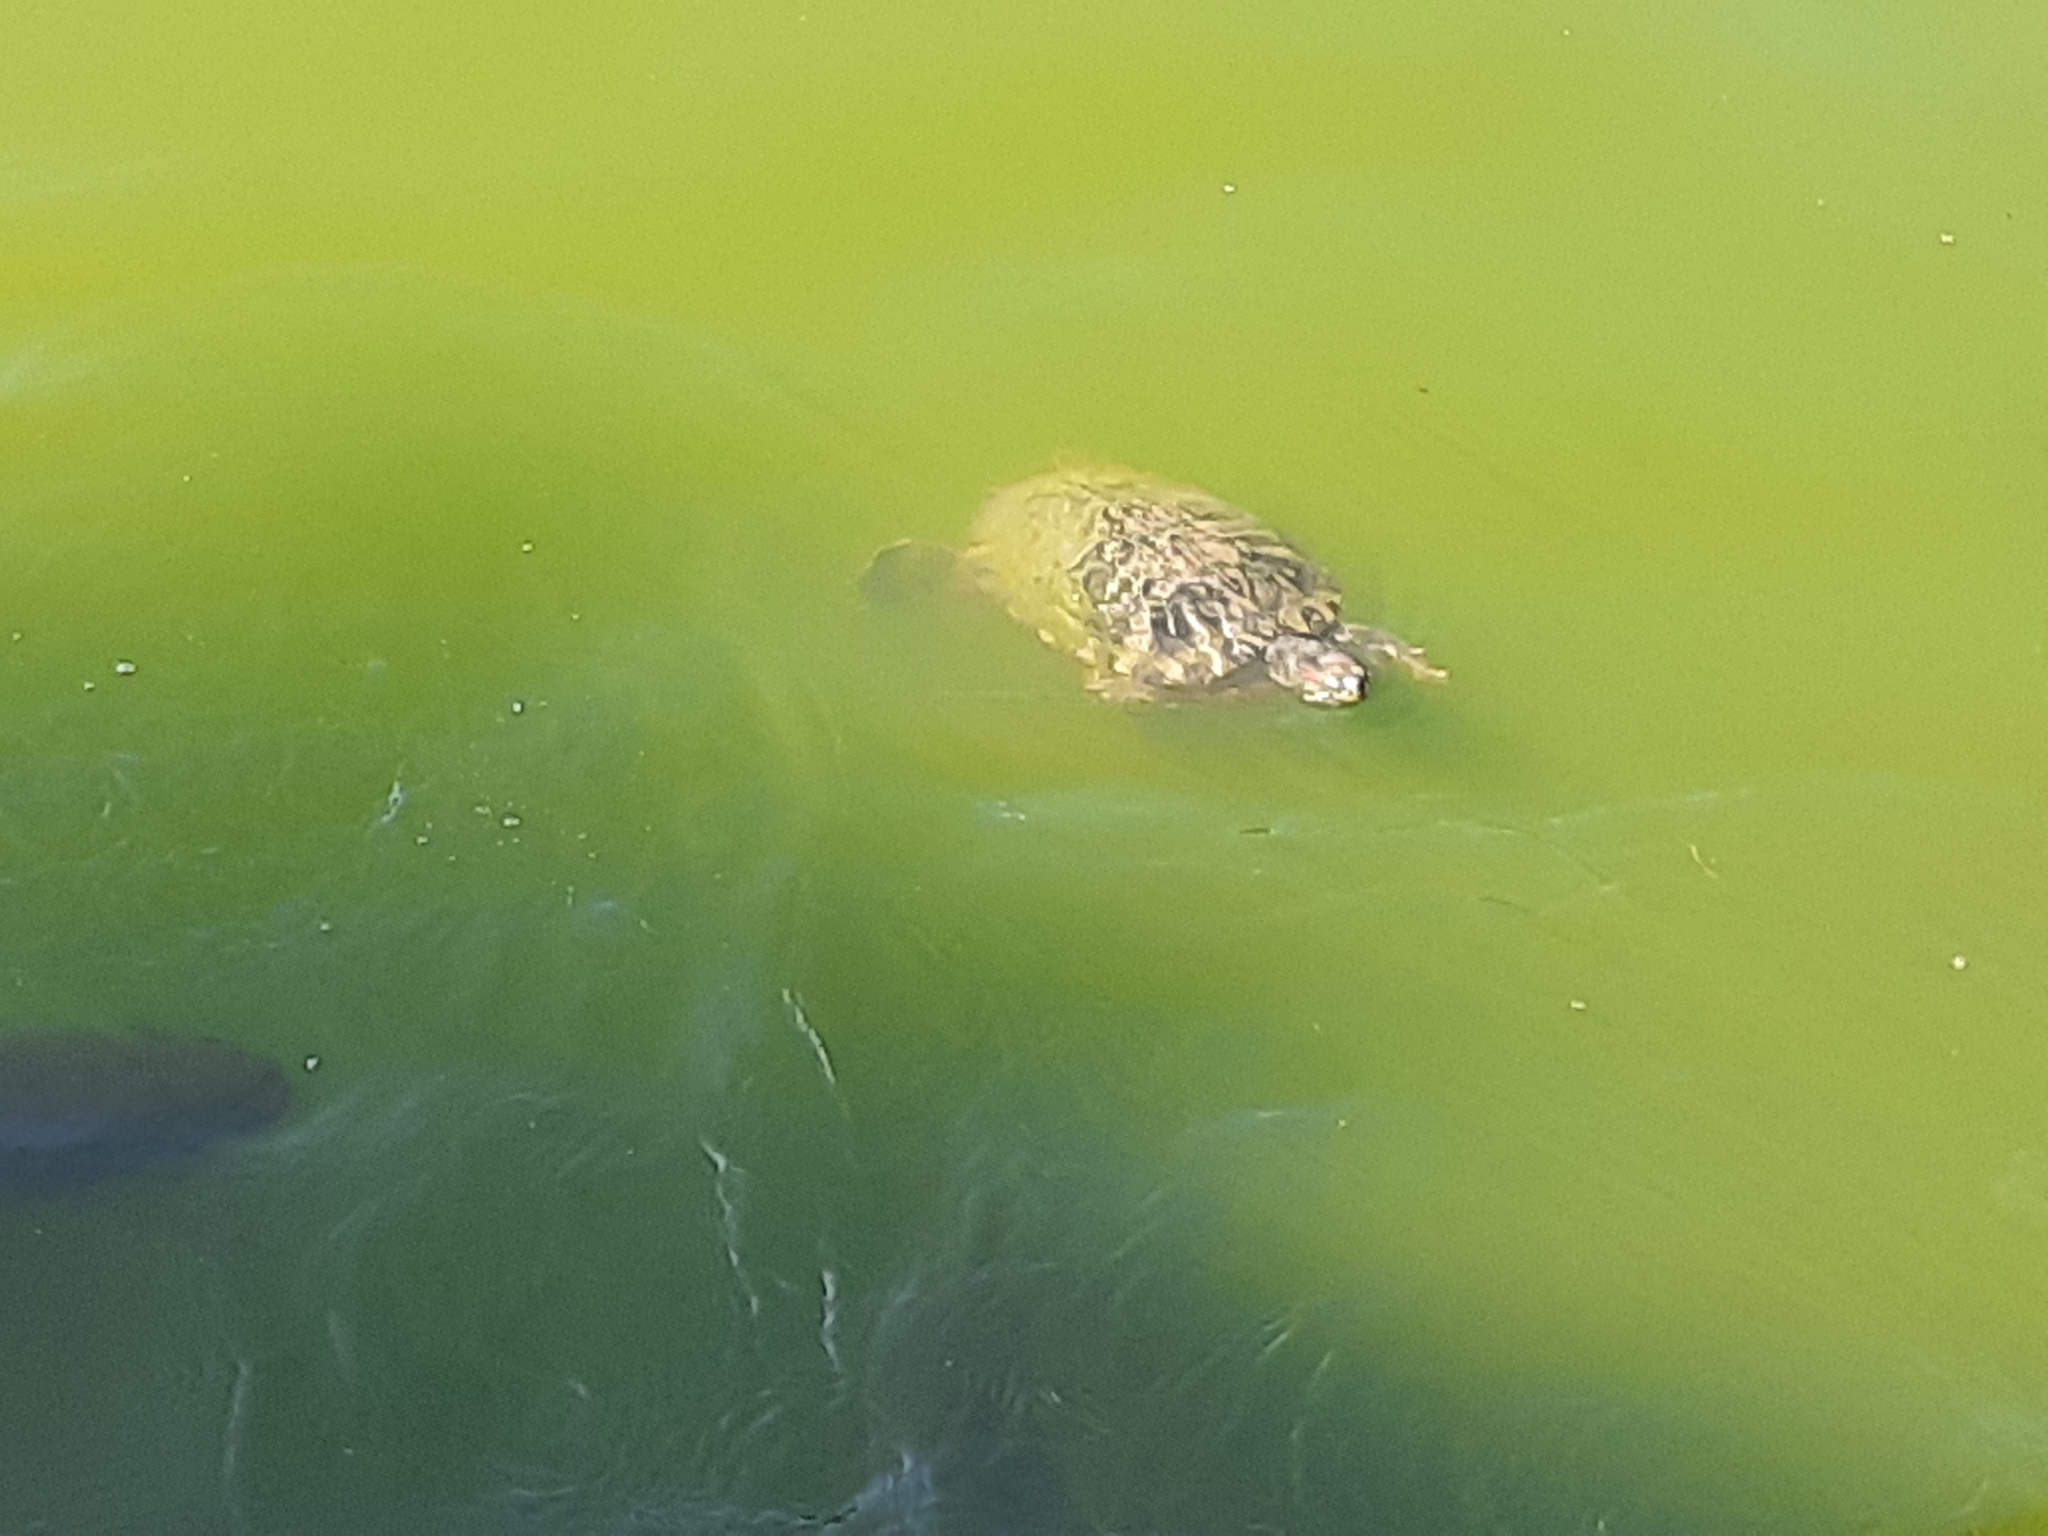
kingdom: Animalia
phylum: Chordata
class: Testudines
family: Emydidae
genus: Trachemys
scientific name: Trachemys scripta
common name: Slider
